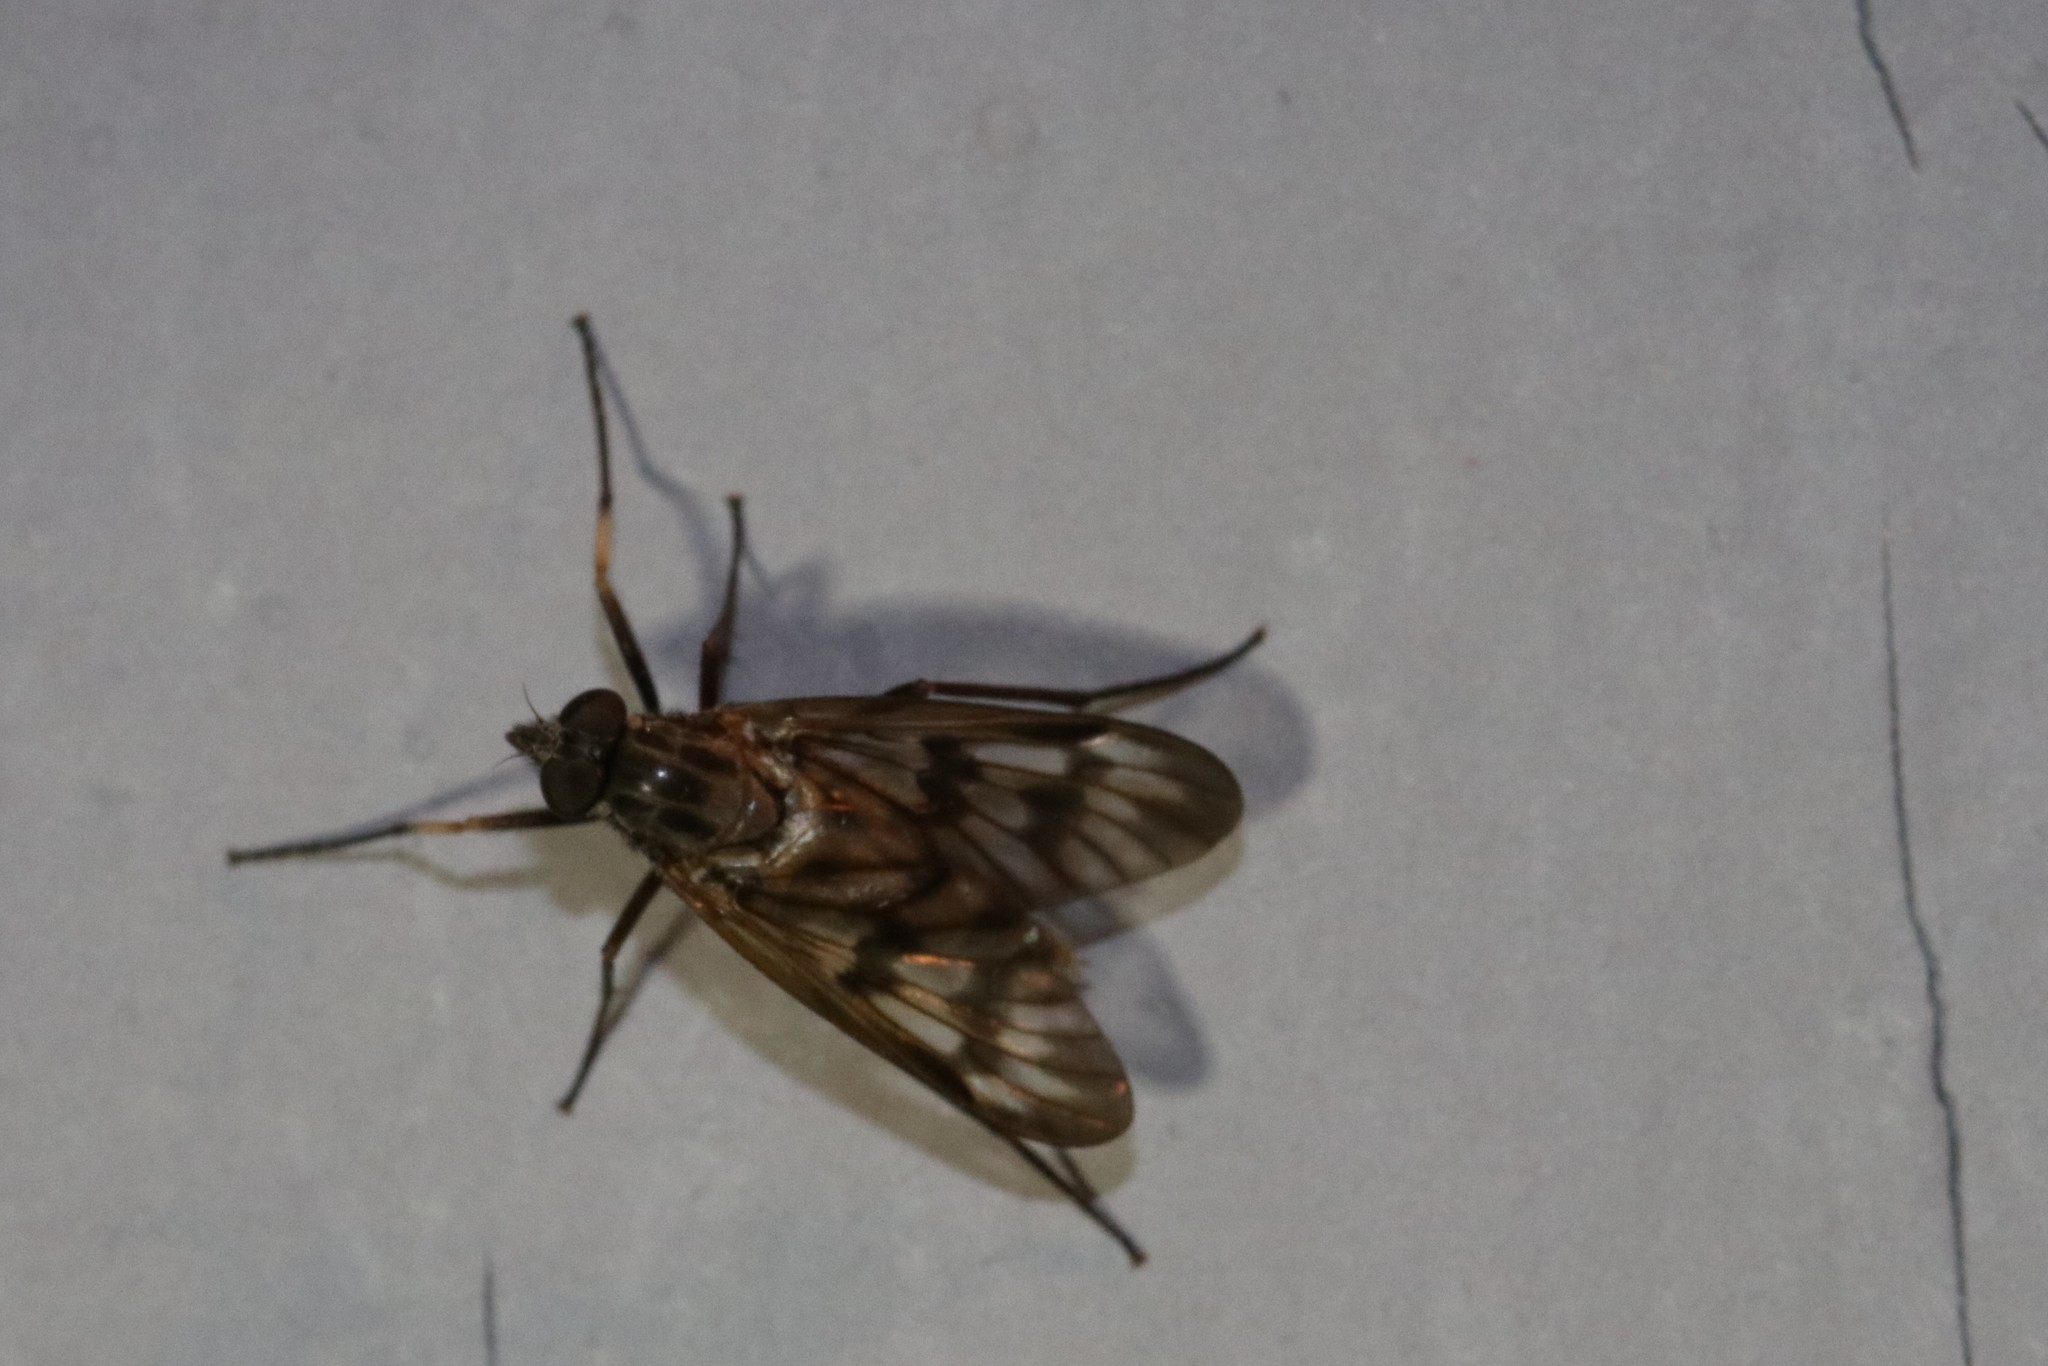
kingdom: Animalia
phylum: Arthropoda
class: Insecta
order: Diptera
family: Rhagionidae
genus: Rhagio
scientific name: Rhagio mystaceus
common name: Common snipe fly
